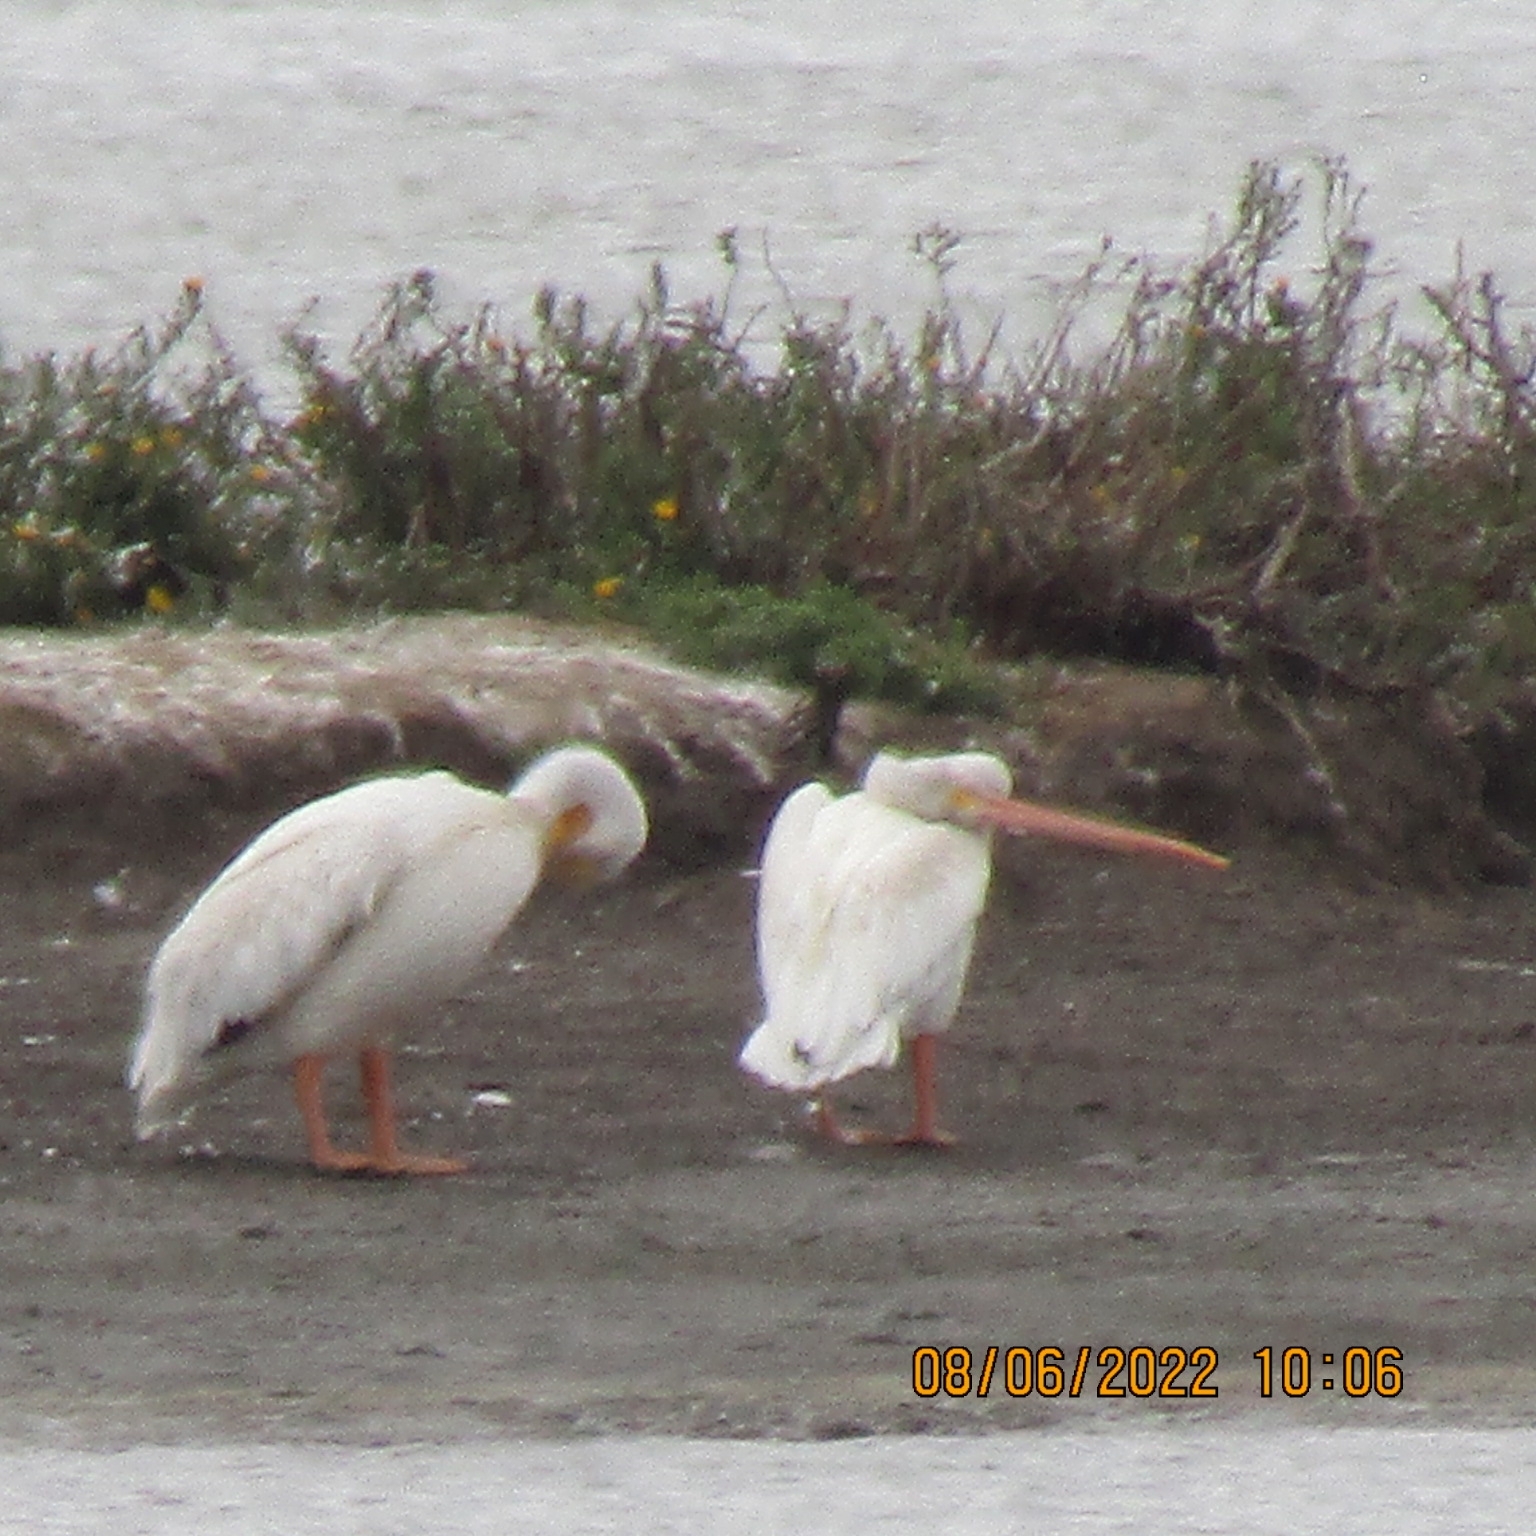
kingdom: Animalia
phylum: Chordata
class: Aves
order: Pelecaniformes
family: Pelecanidae
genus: Pelecanus
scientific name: Pelecanus erythrorhynchos
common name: American white pelican
